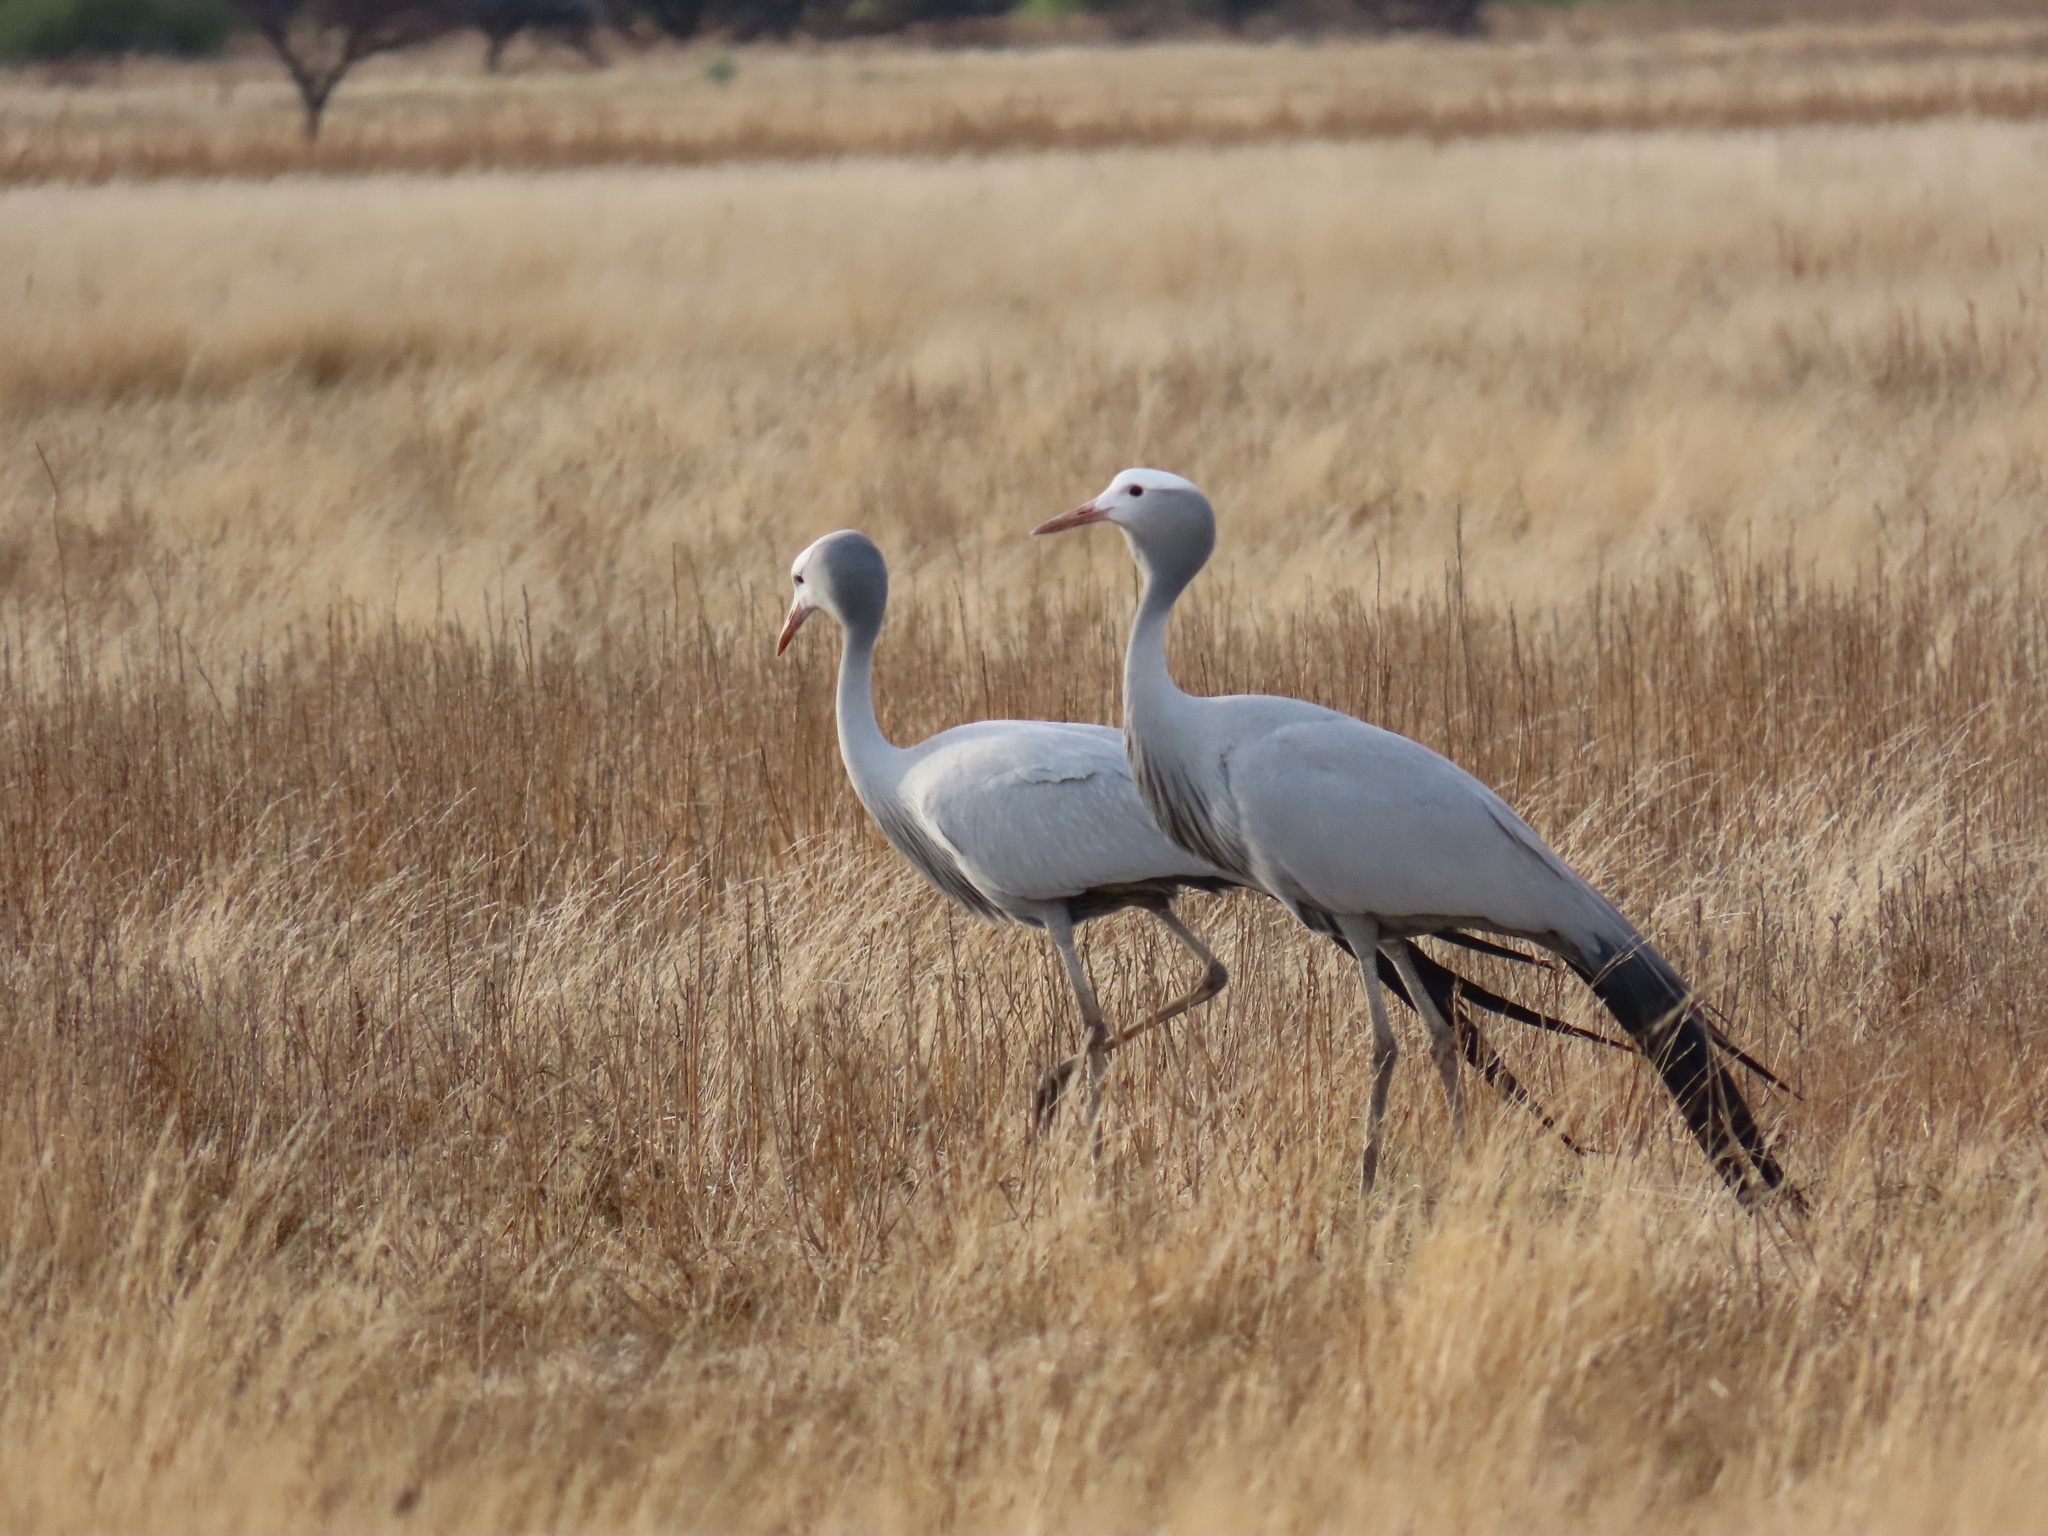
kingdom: Animalia
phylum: Chordata
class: Aves
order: Gruiformes
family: Gruidae
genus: Anthropoides
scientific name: Anthropoides paradiseus
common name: Blue crane
